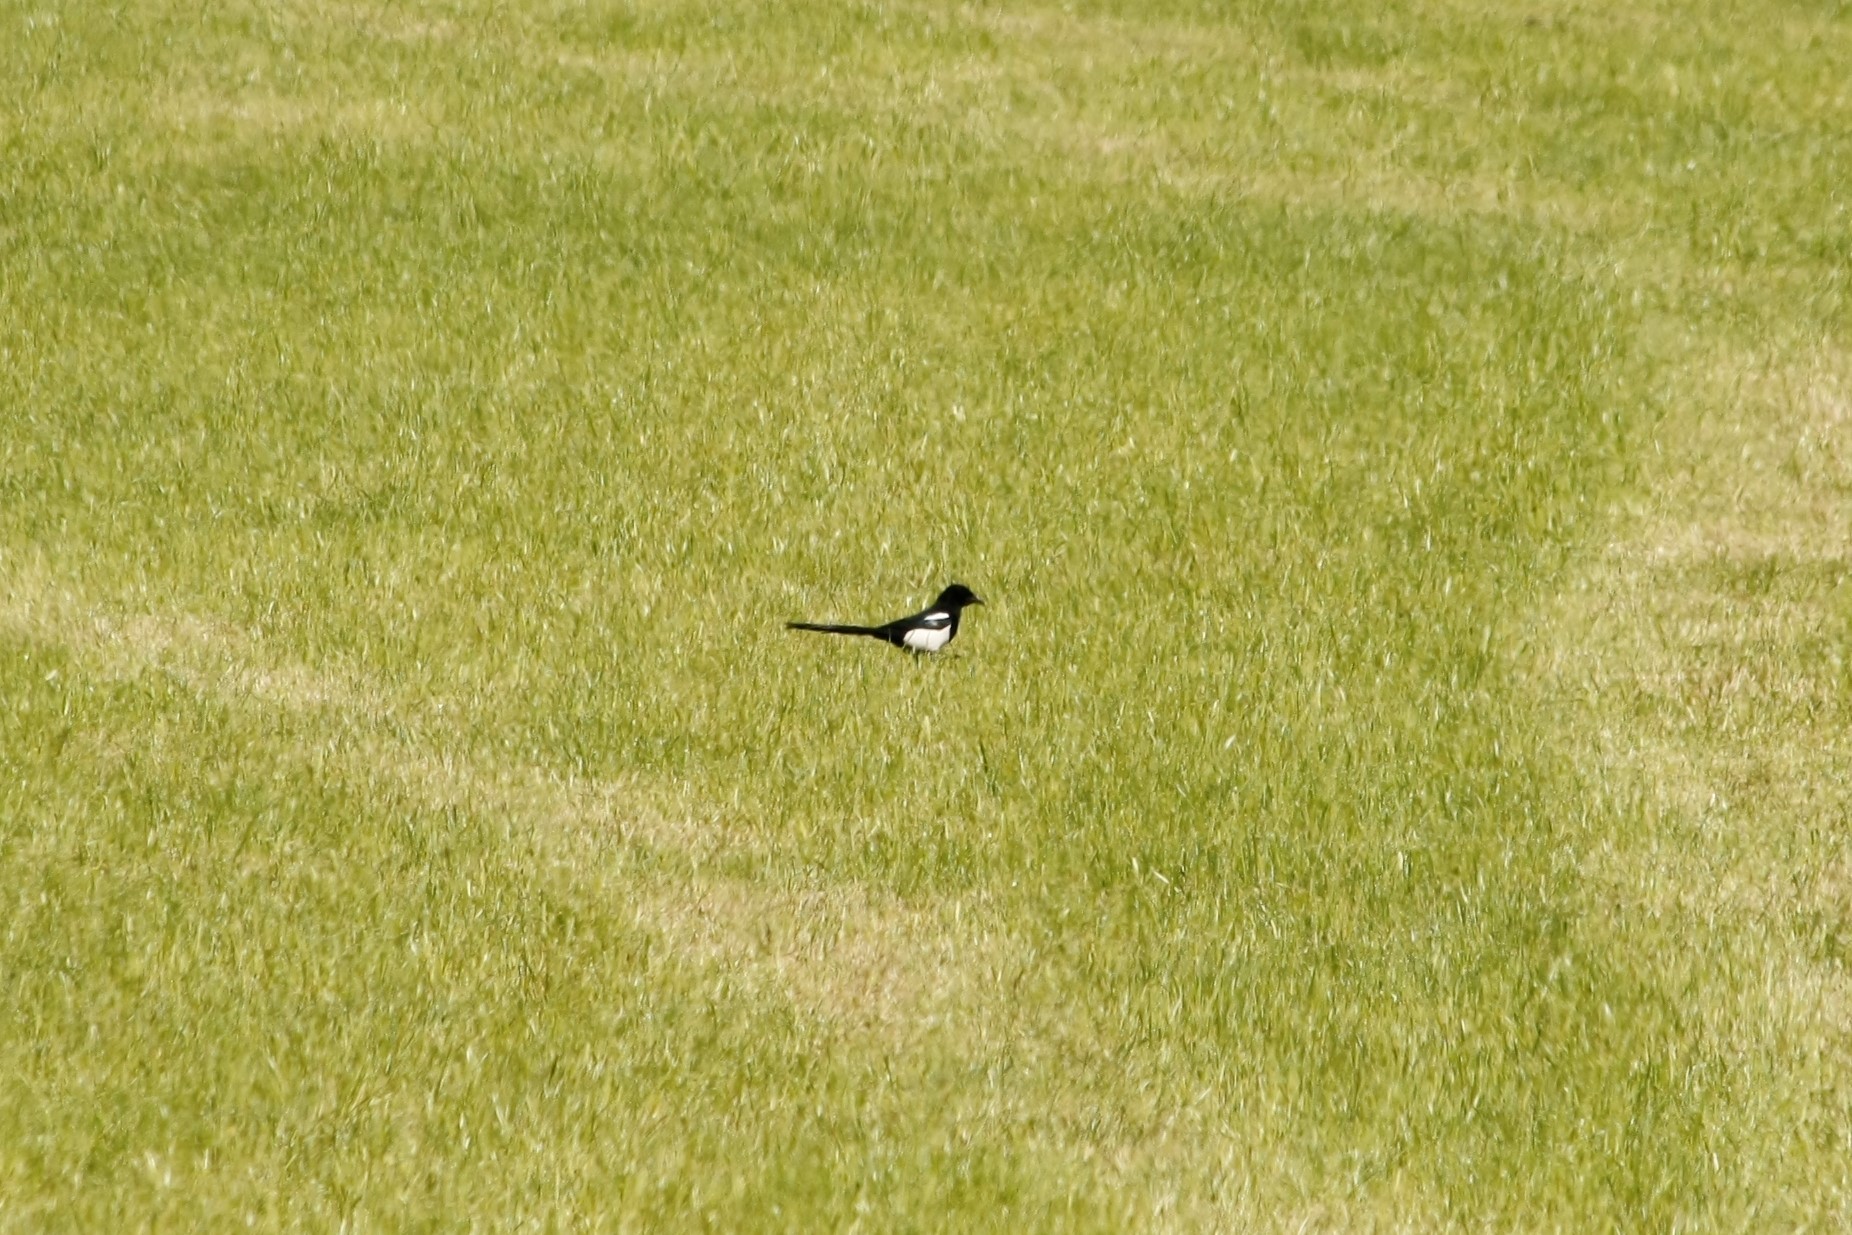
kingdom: Animalia
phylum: Chordata
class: Aves
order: Passeriformes
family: Corvidae
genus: Pica
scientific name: Pica pica
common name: Eurasian magpie
